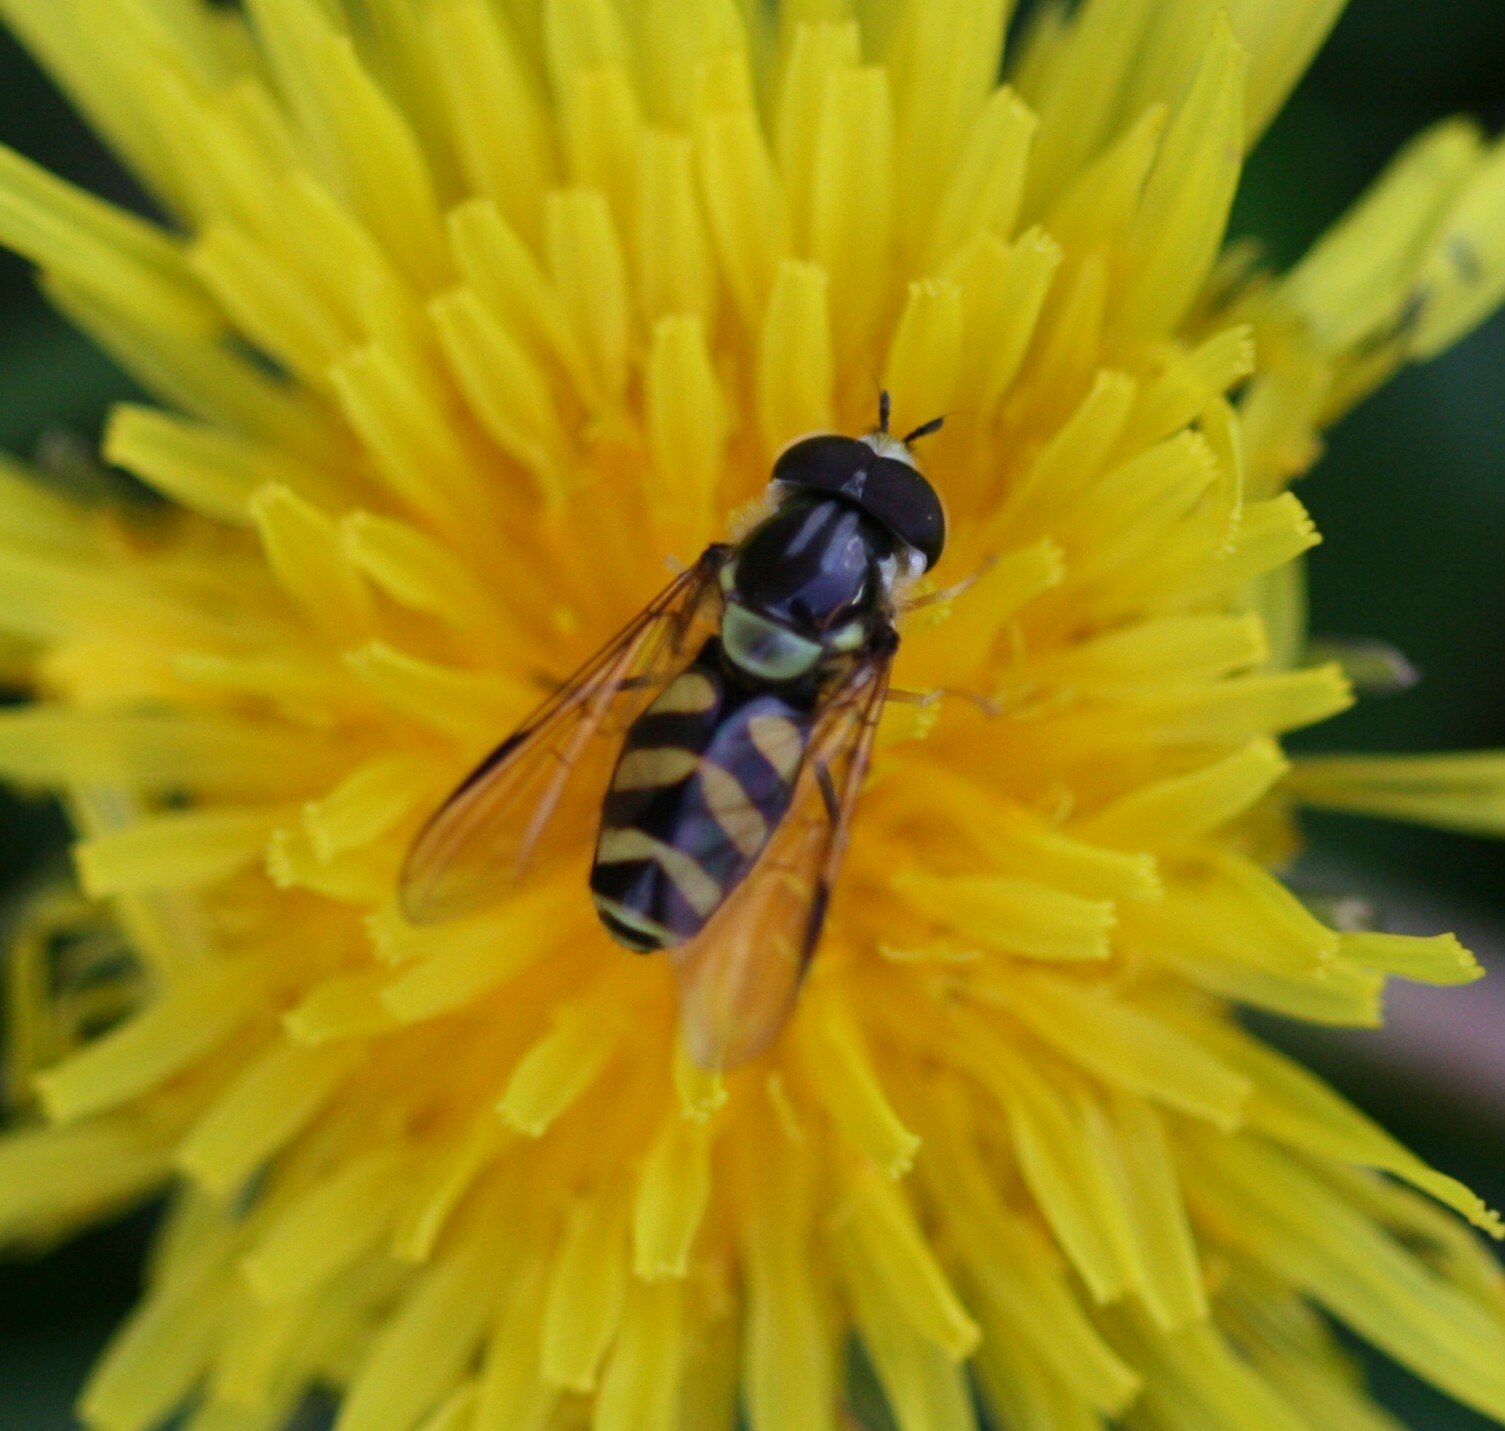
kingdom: Animalia
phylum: Arthropoda
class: Insecta
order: Diptera
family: Syrphidae
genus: Dasysyrphus
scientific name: Dasysyrphus albostriatus
